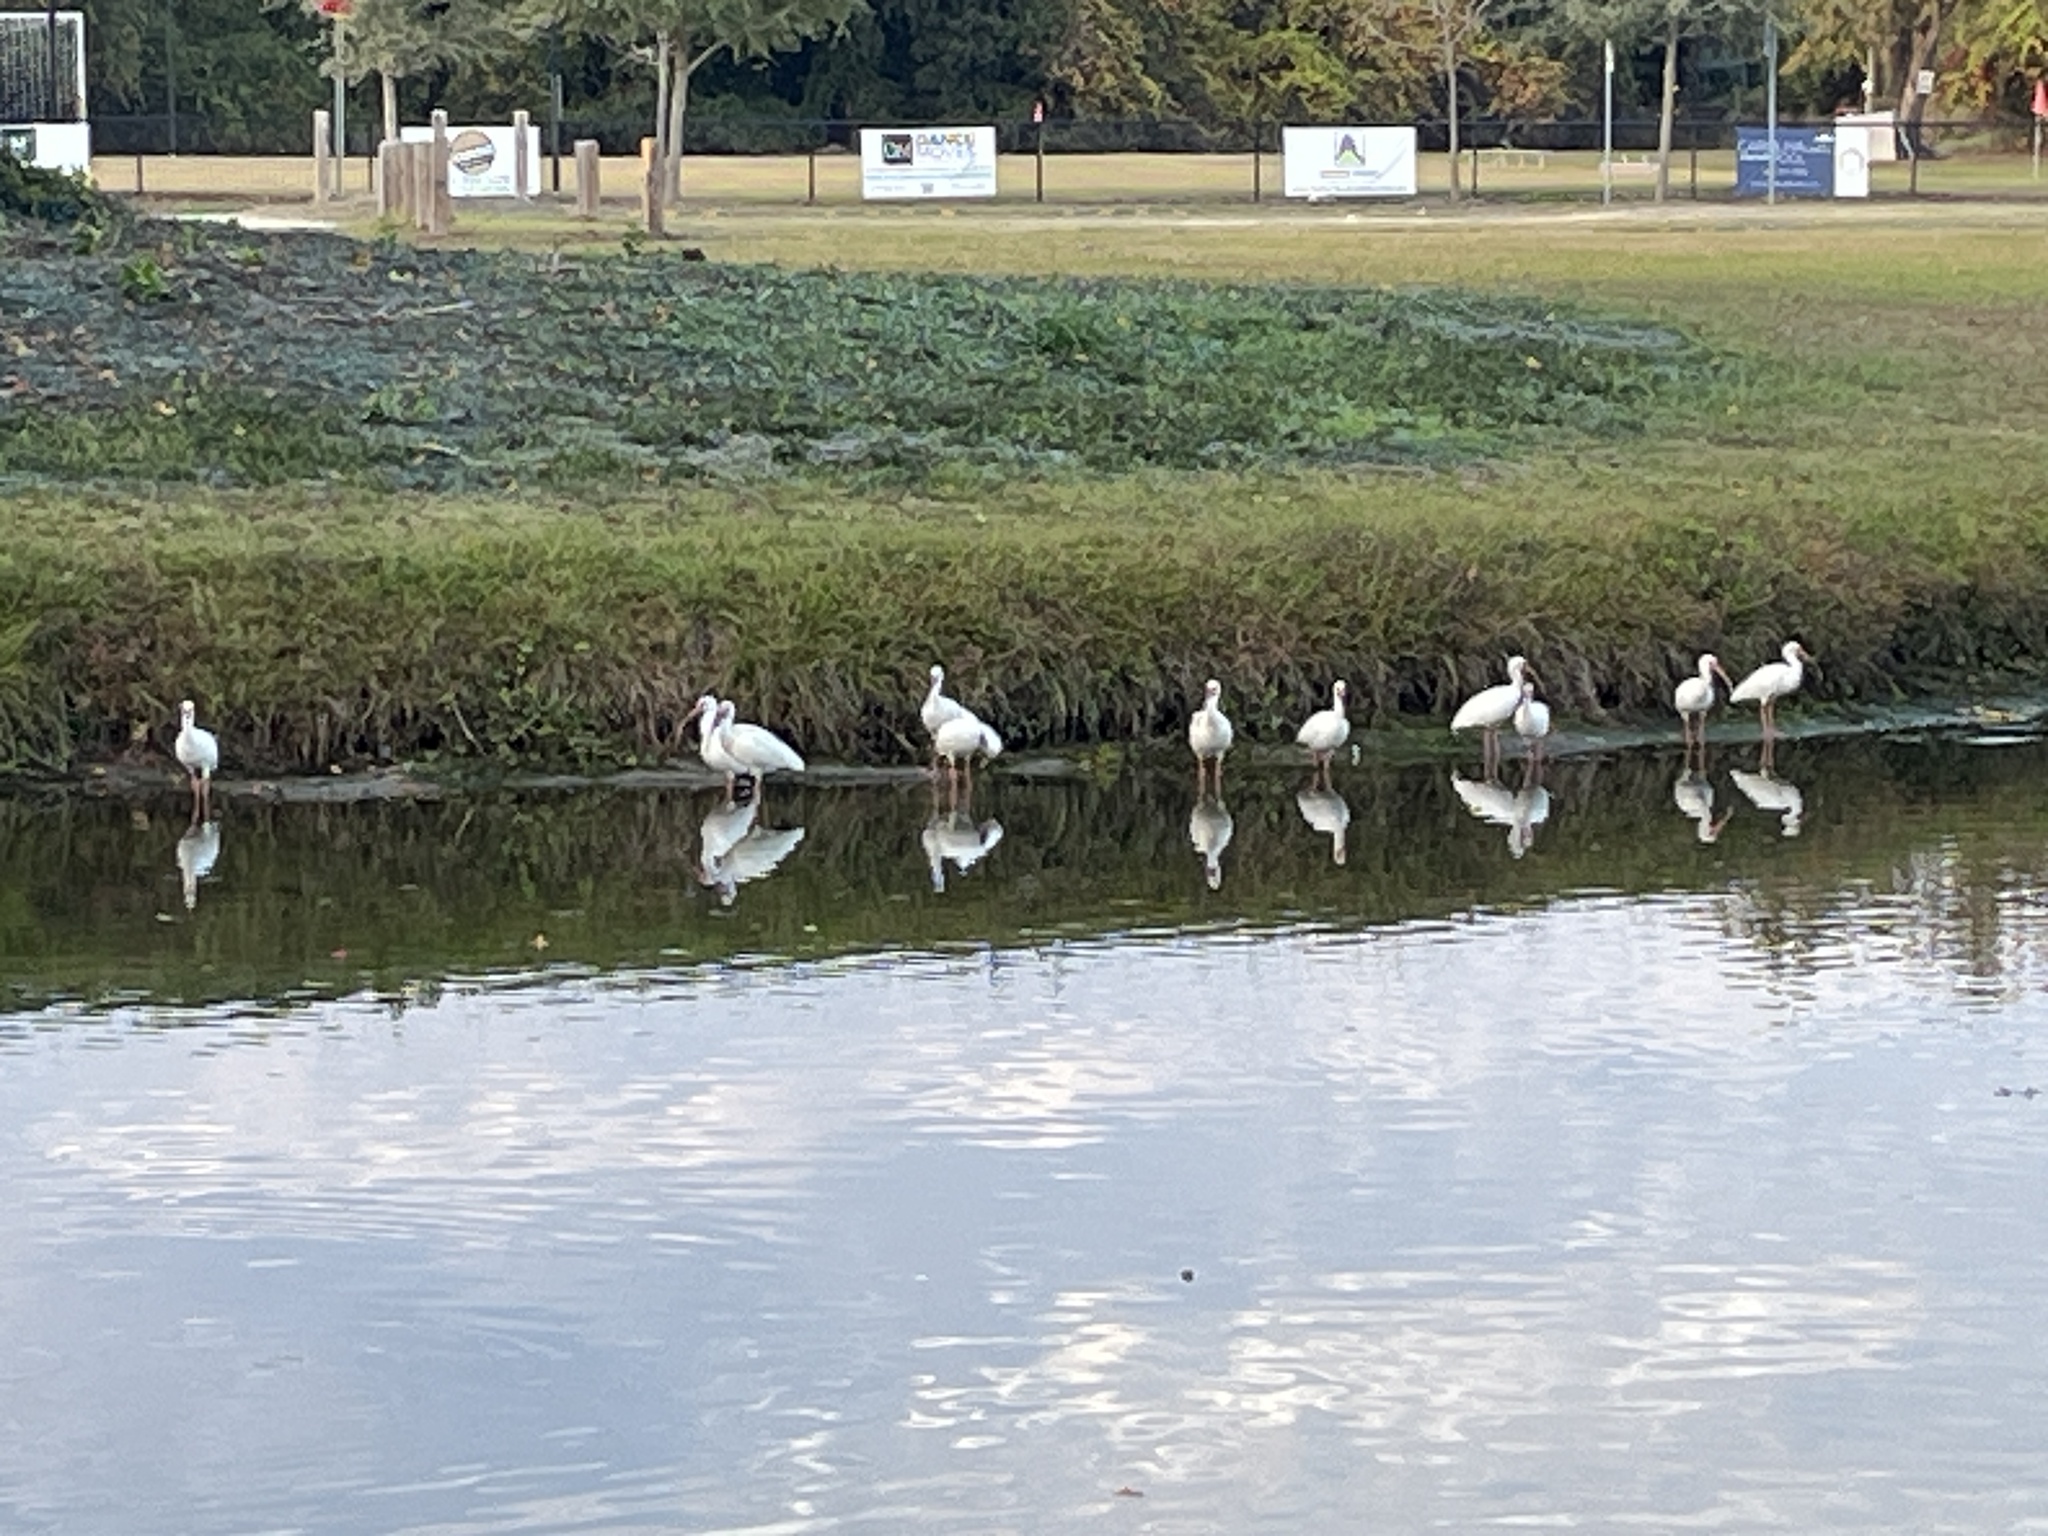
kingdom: Animalia
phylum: Chordata
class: Aves
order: Pelecaniformes
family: Threskiornithidae
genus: Eudocimus
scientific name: Eudocimus albus
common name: White ibis
